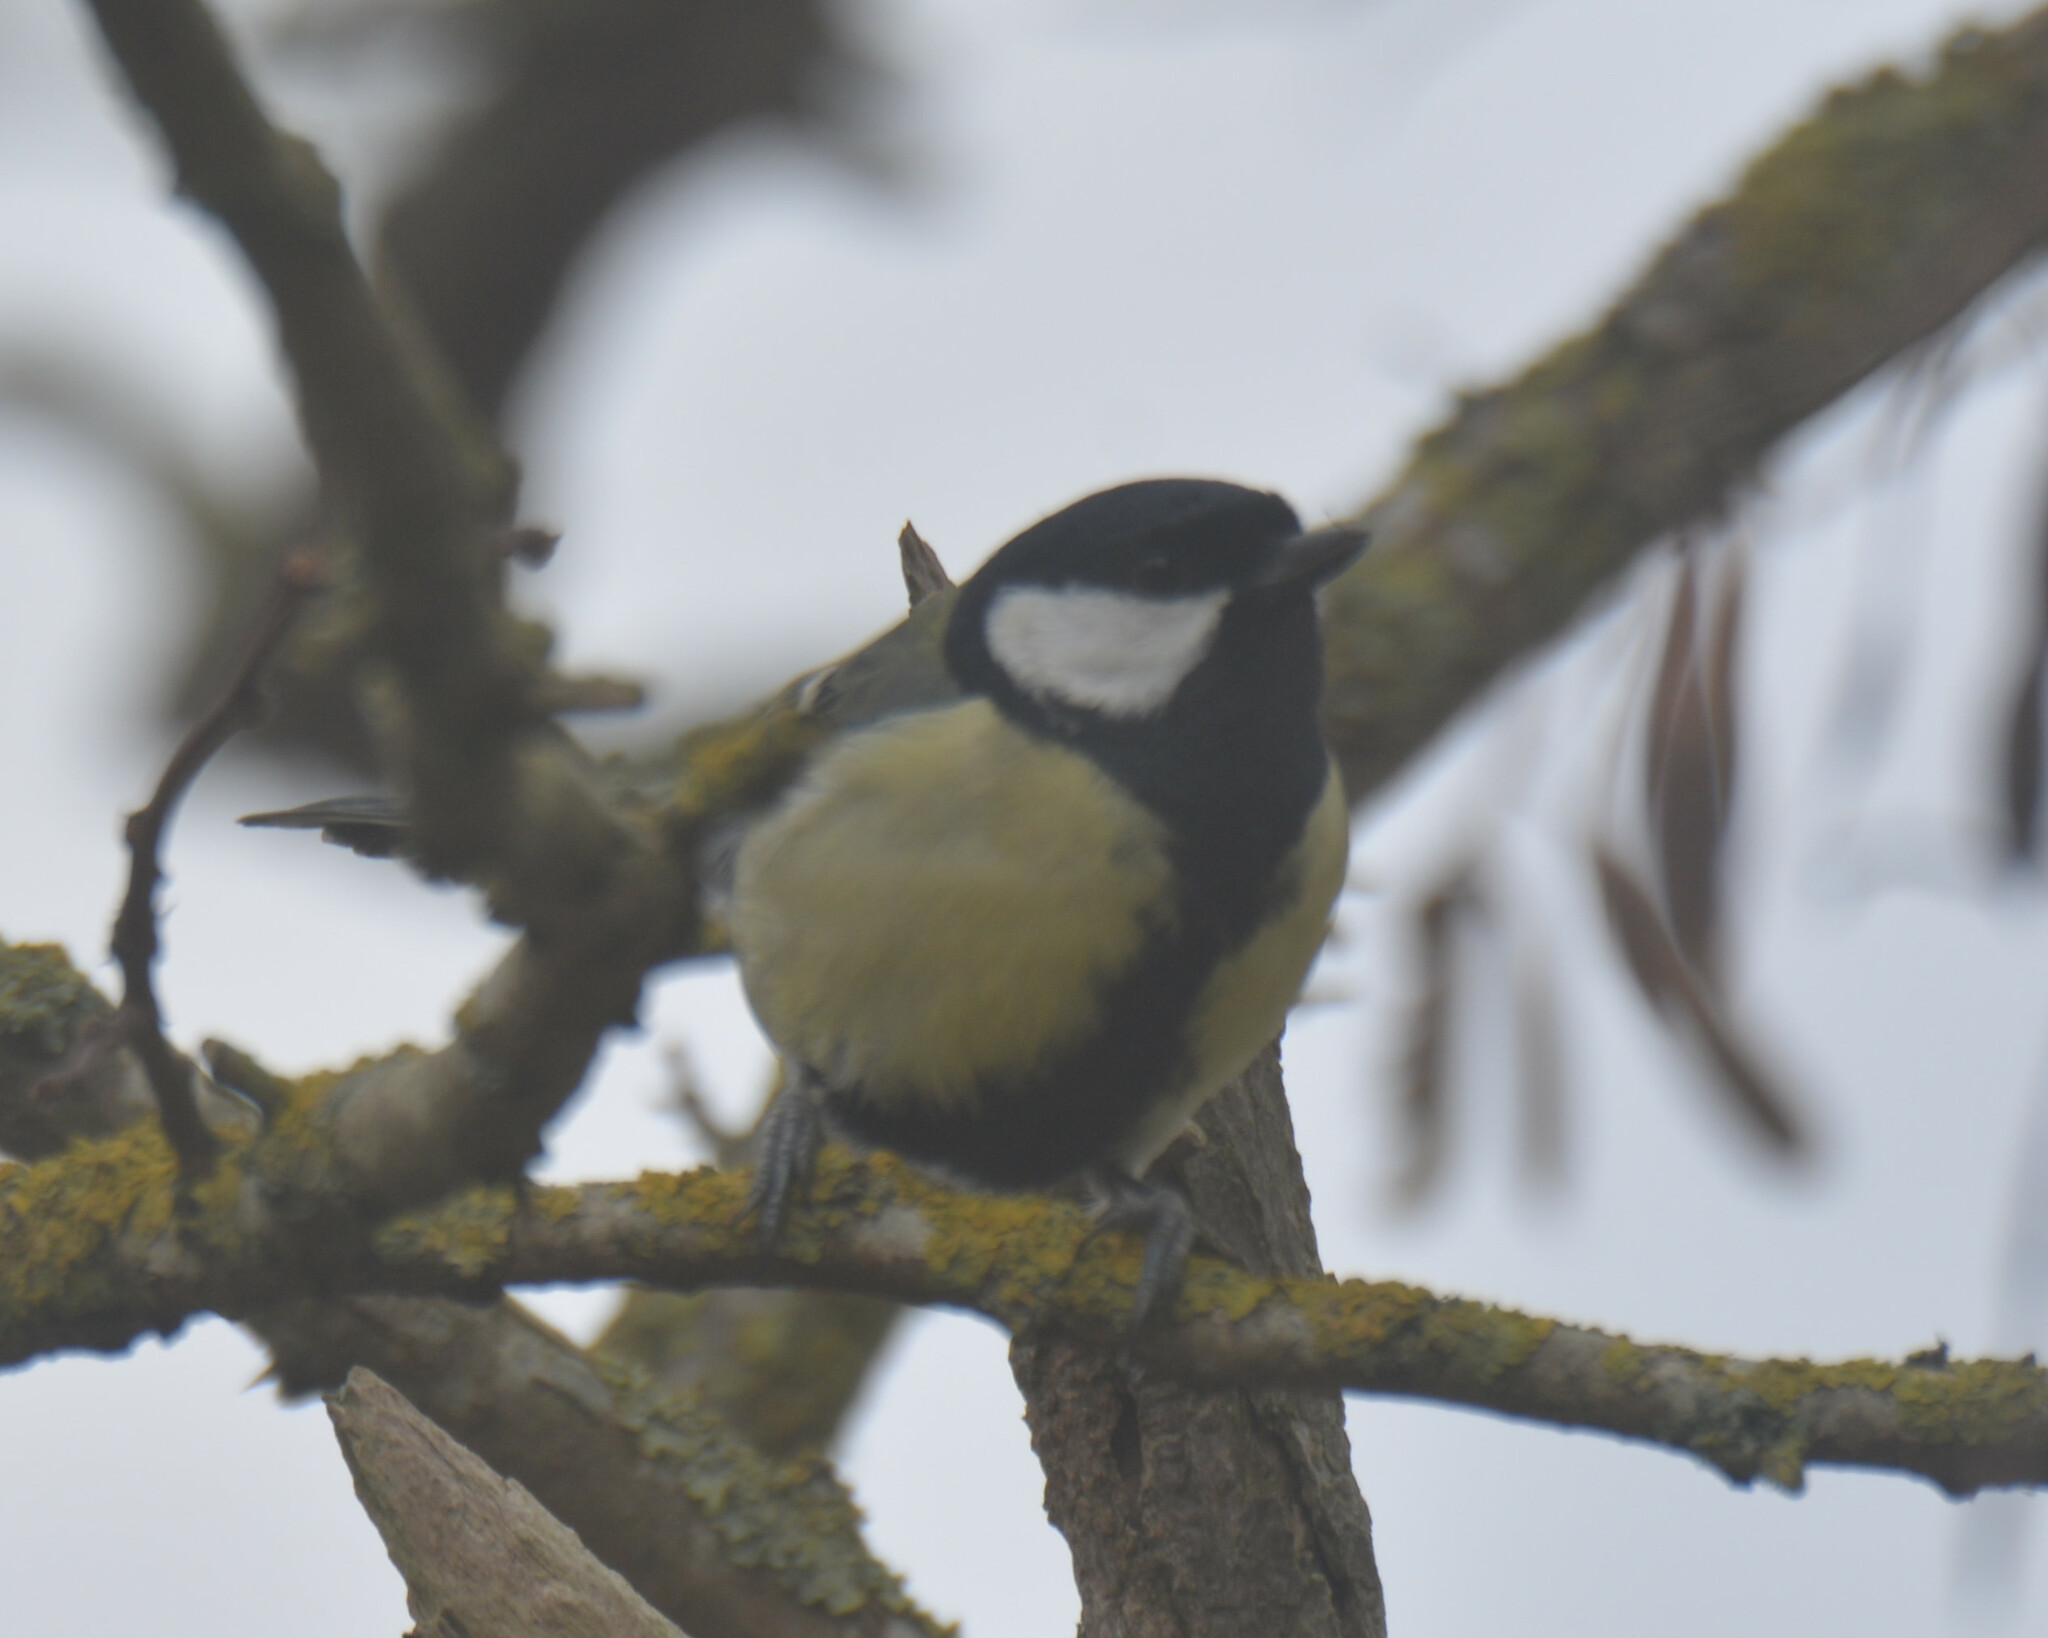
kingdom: Animalia
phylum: Chordata
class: Aves
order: Passeriformes
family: Paridae
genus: Parus
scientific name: Parus major
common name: Great tit
